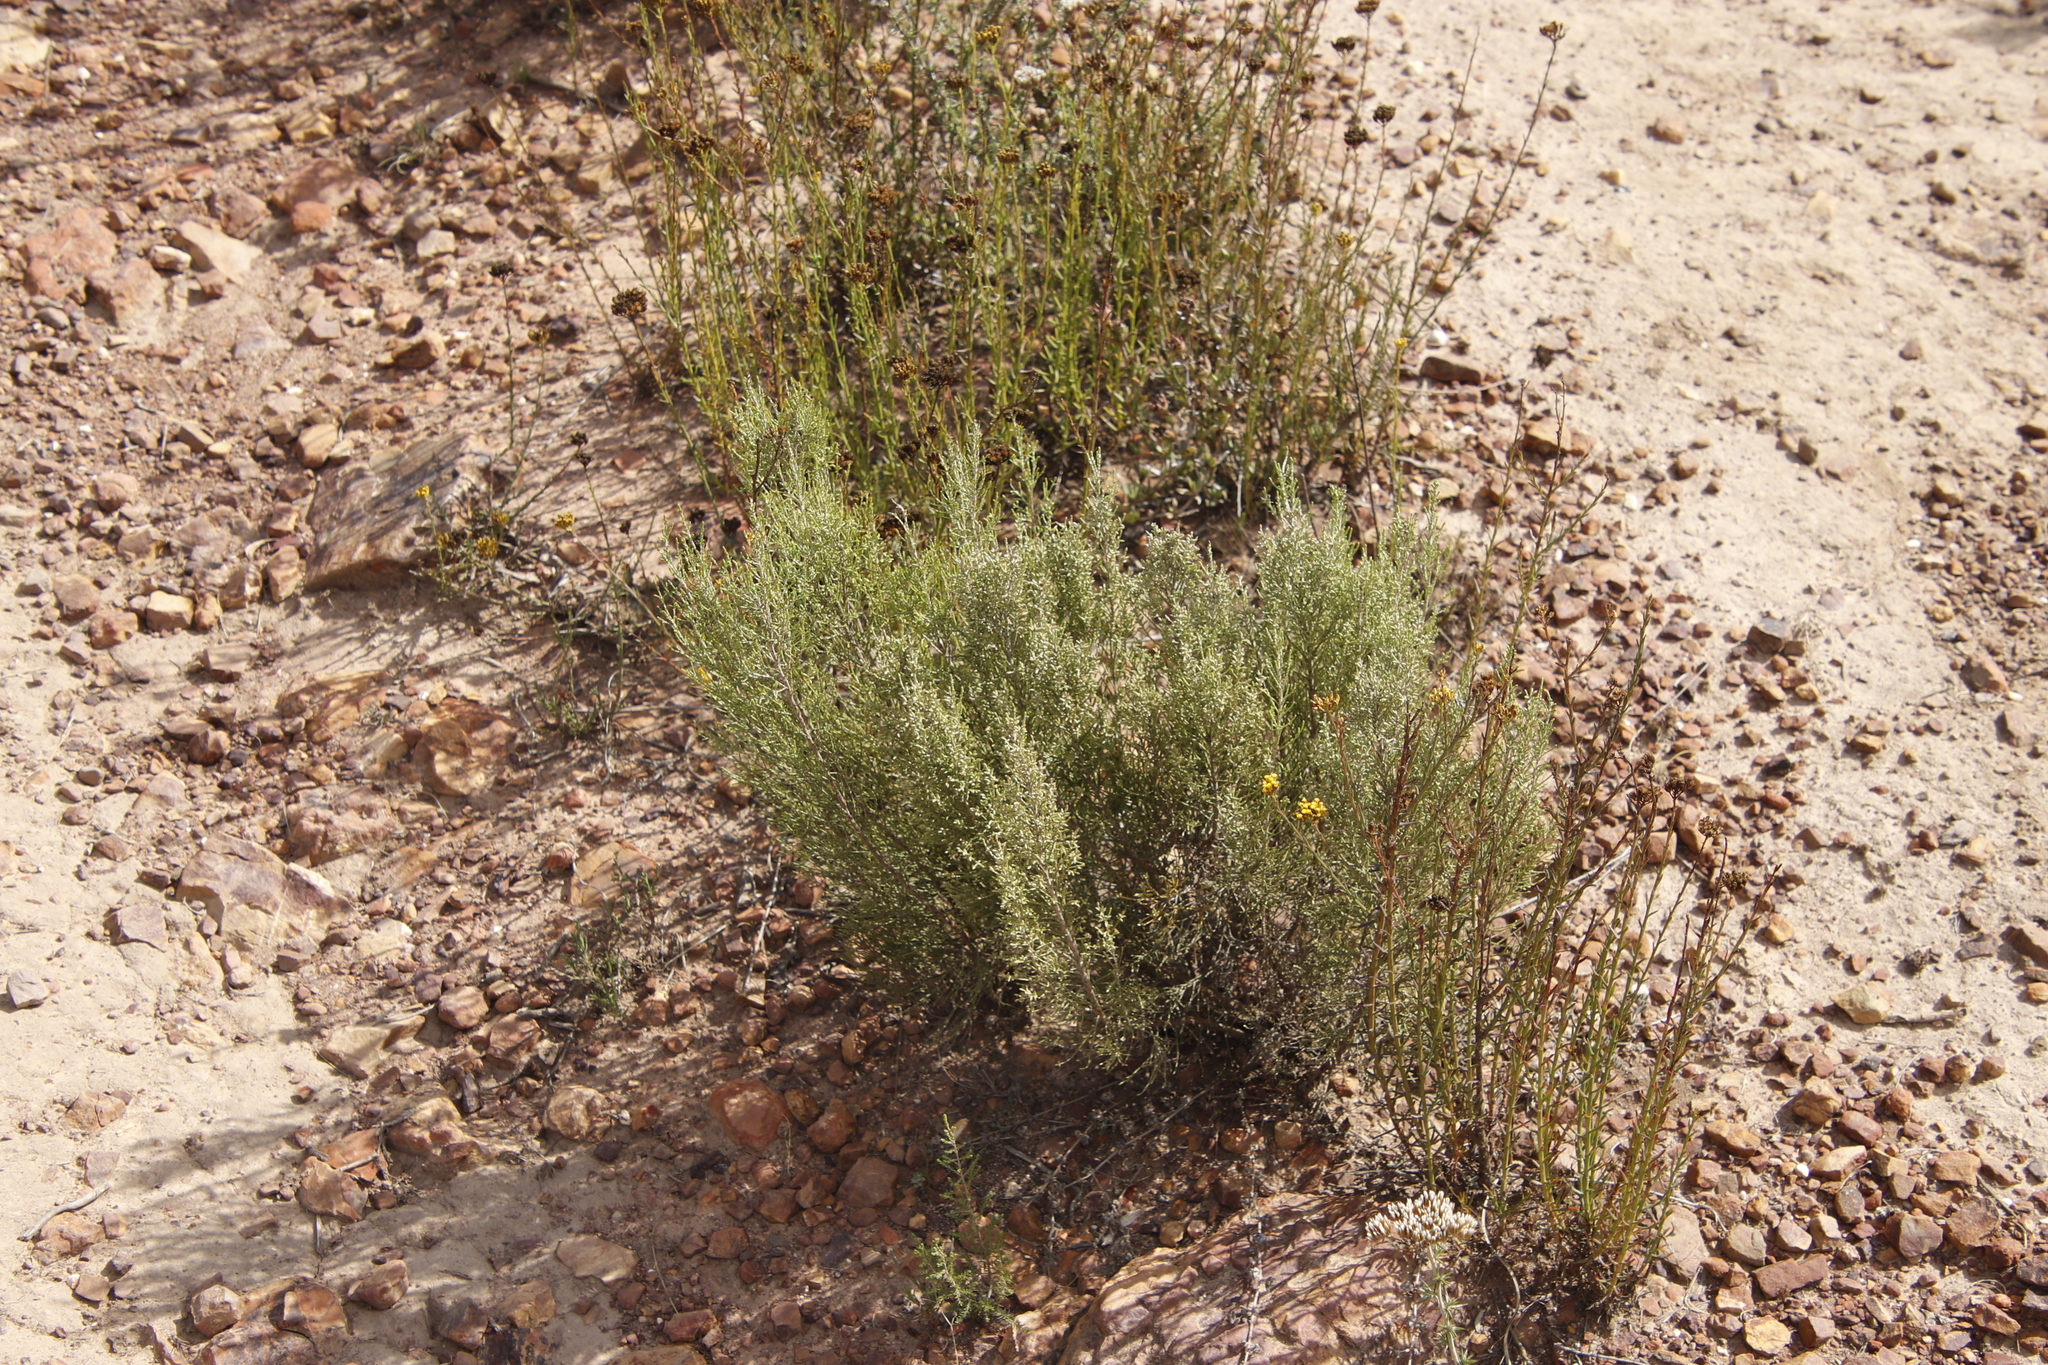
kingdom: Plantae
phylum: Tracheophyta
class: Magnoliopsida
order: Asterales
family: Asteraceae
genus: Dicerothamnus
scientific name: Dicerothamnus rhinocerotis
